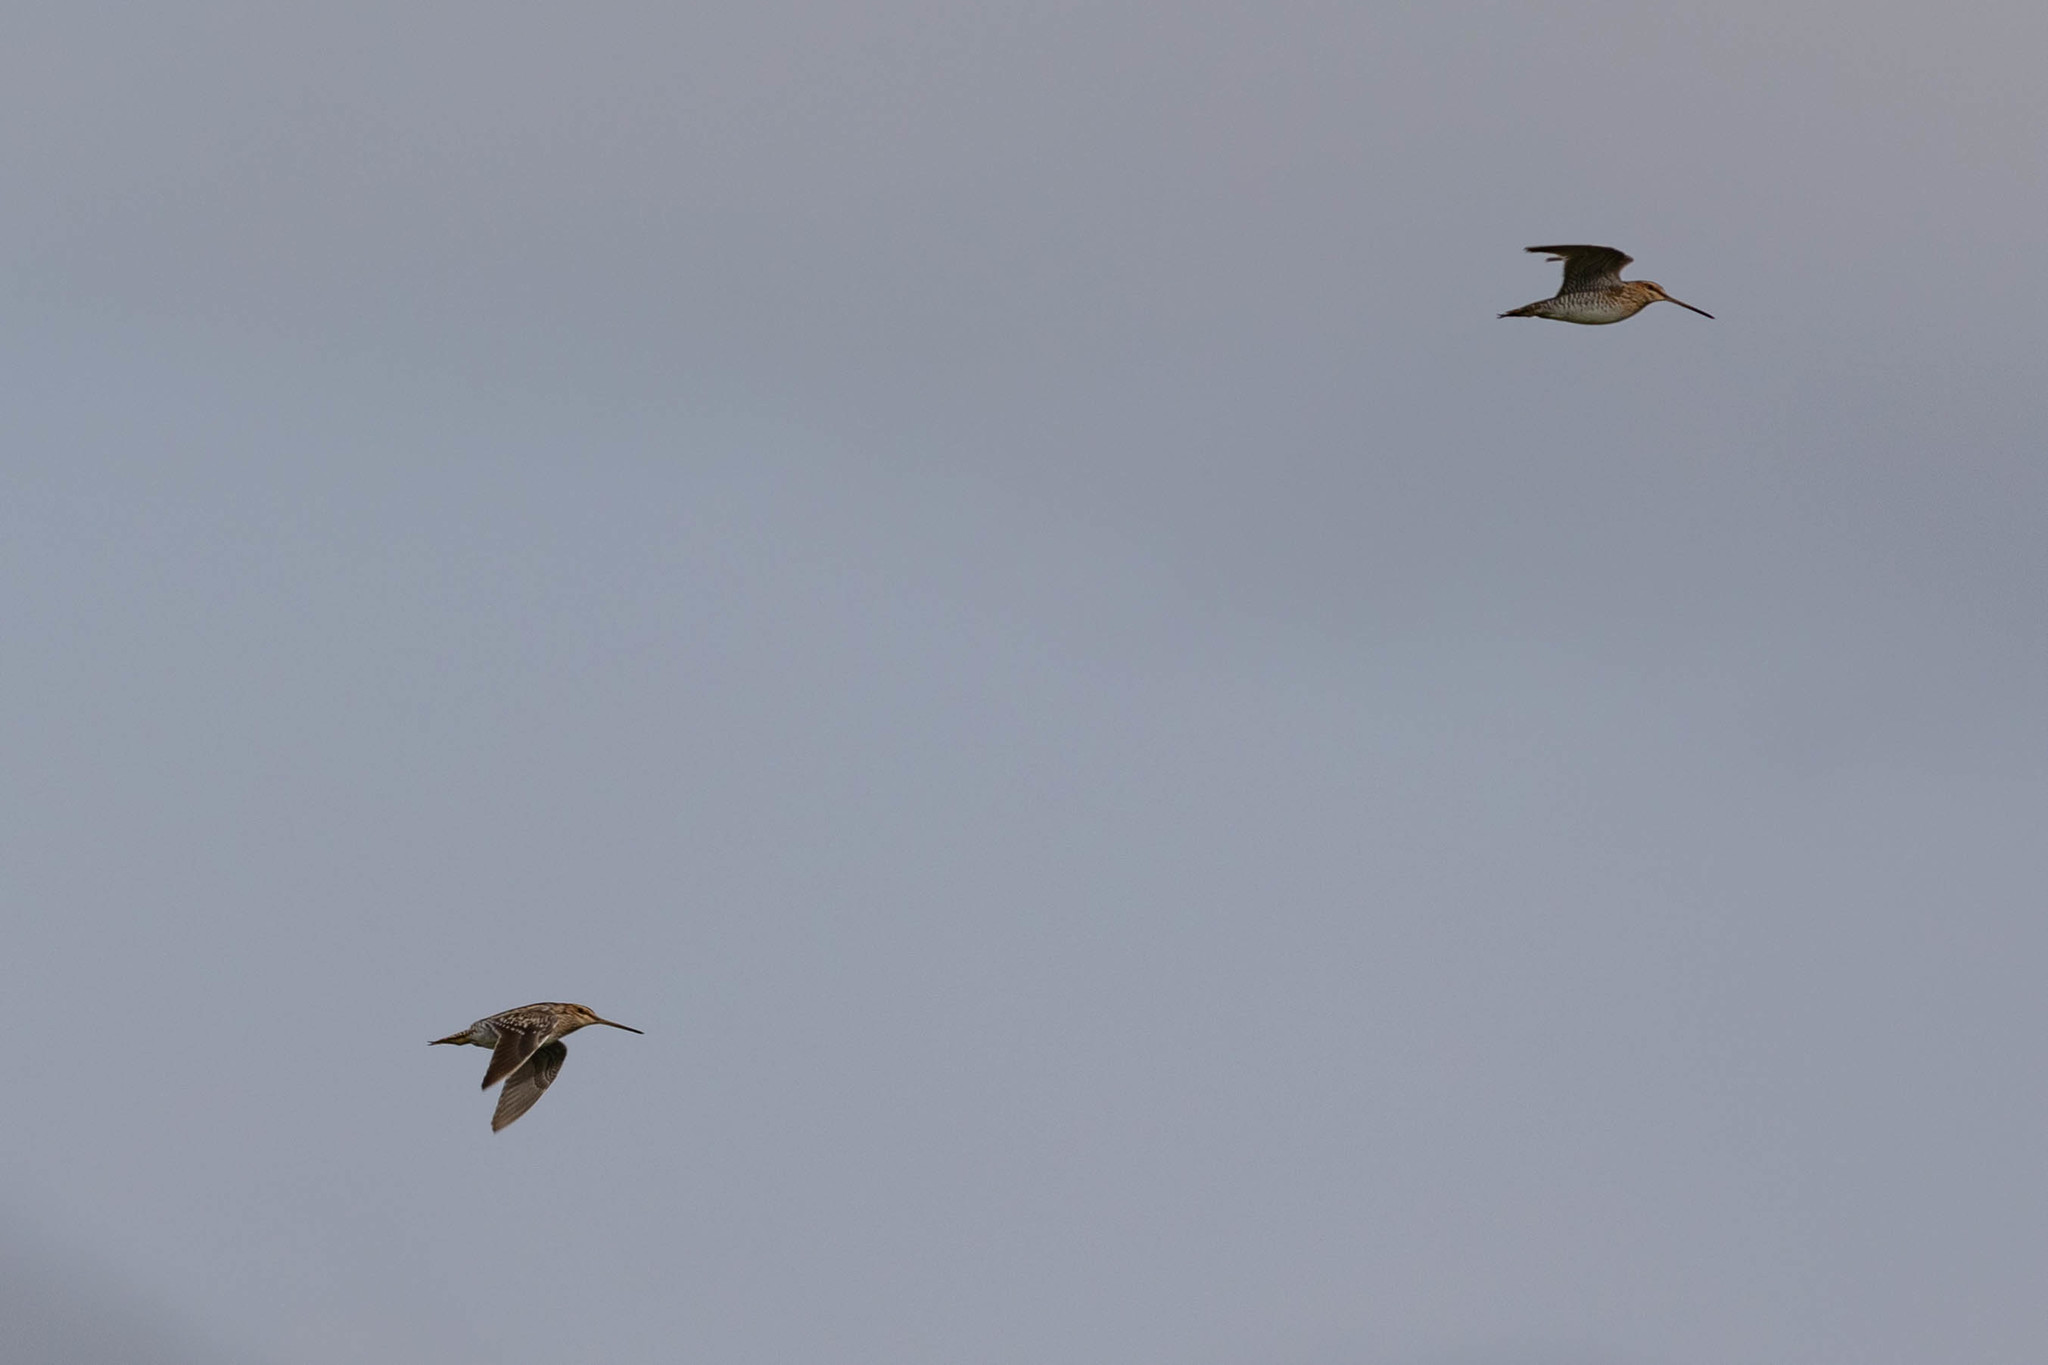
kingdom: Animalia
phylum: Chordata
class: Aves
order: Charadriiformes
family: Scolopacidae
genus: Gallinago
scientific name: Gallinago delicata
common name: Wilson's snipe
